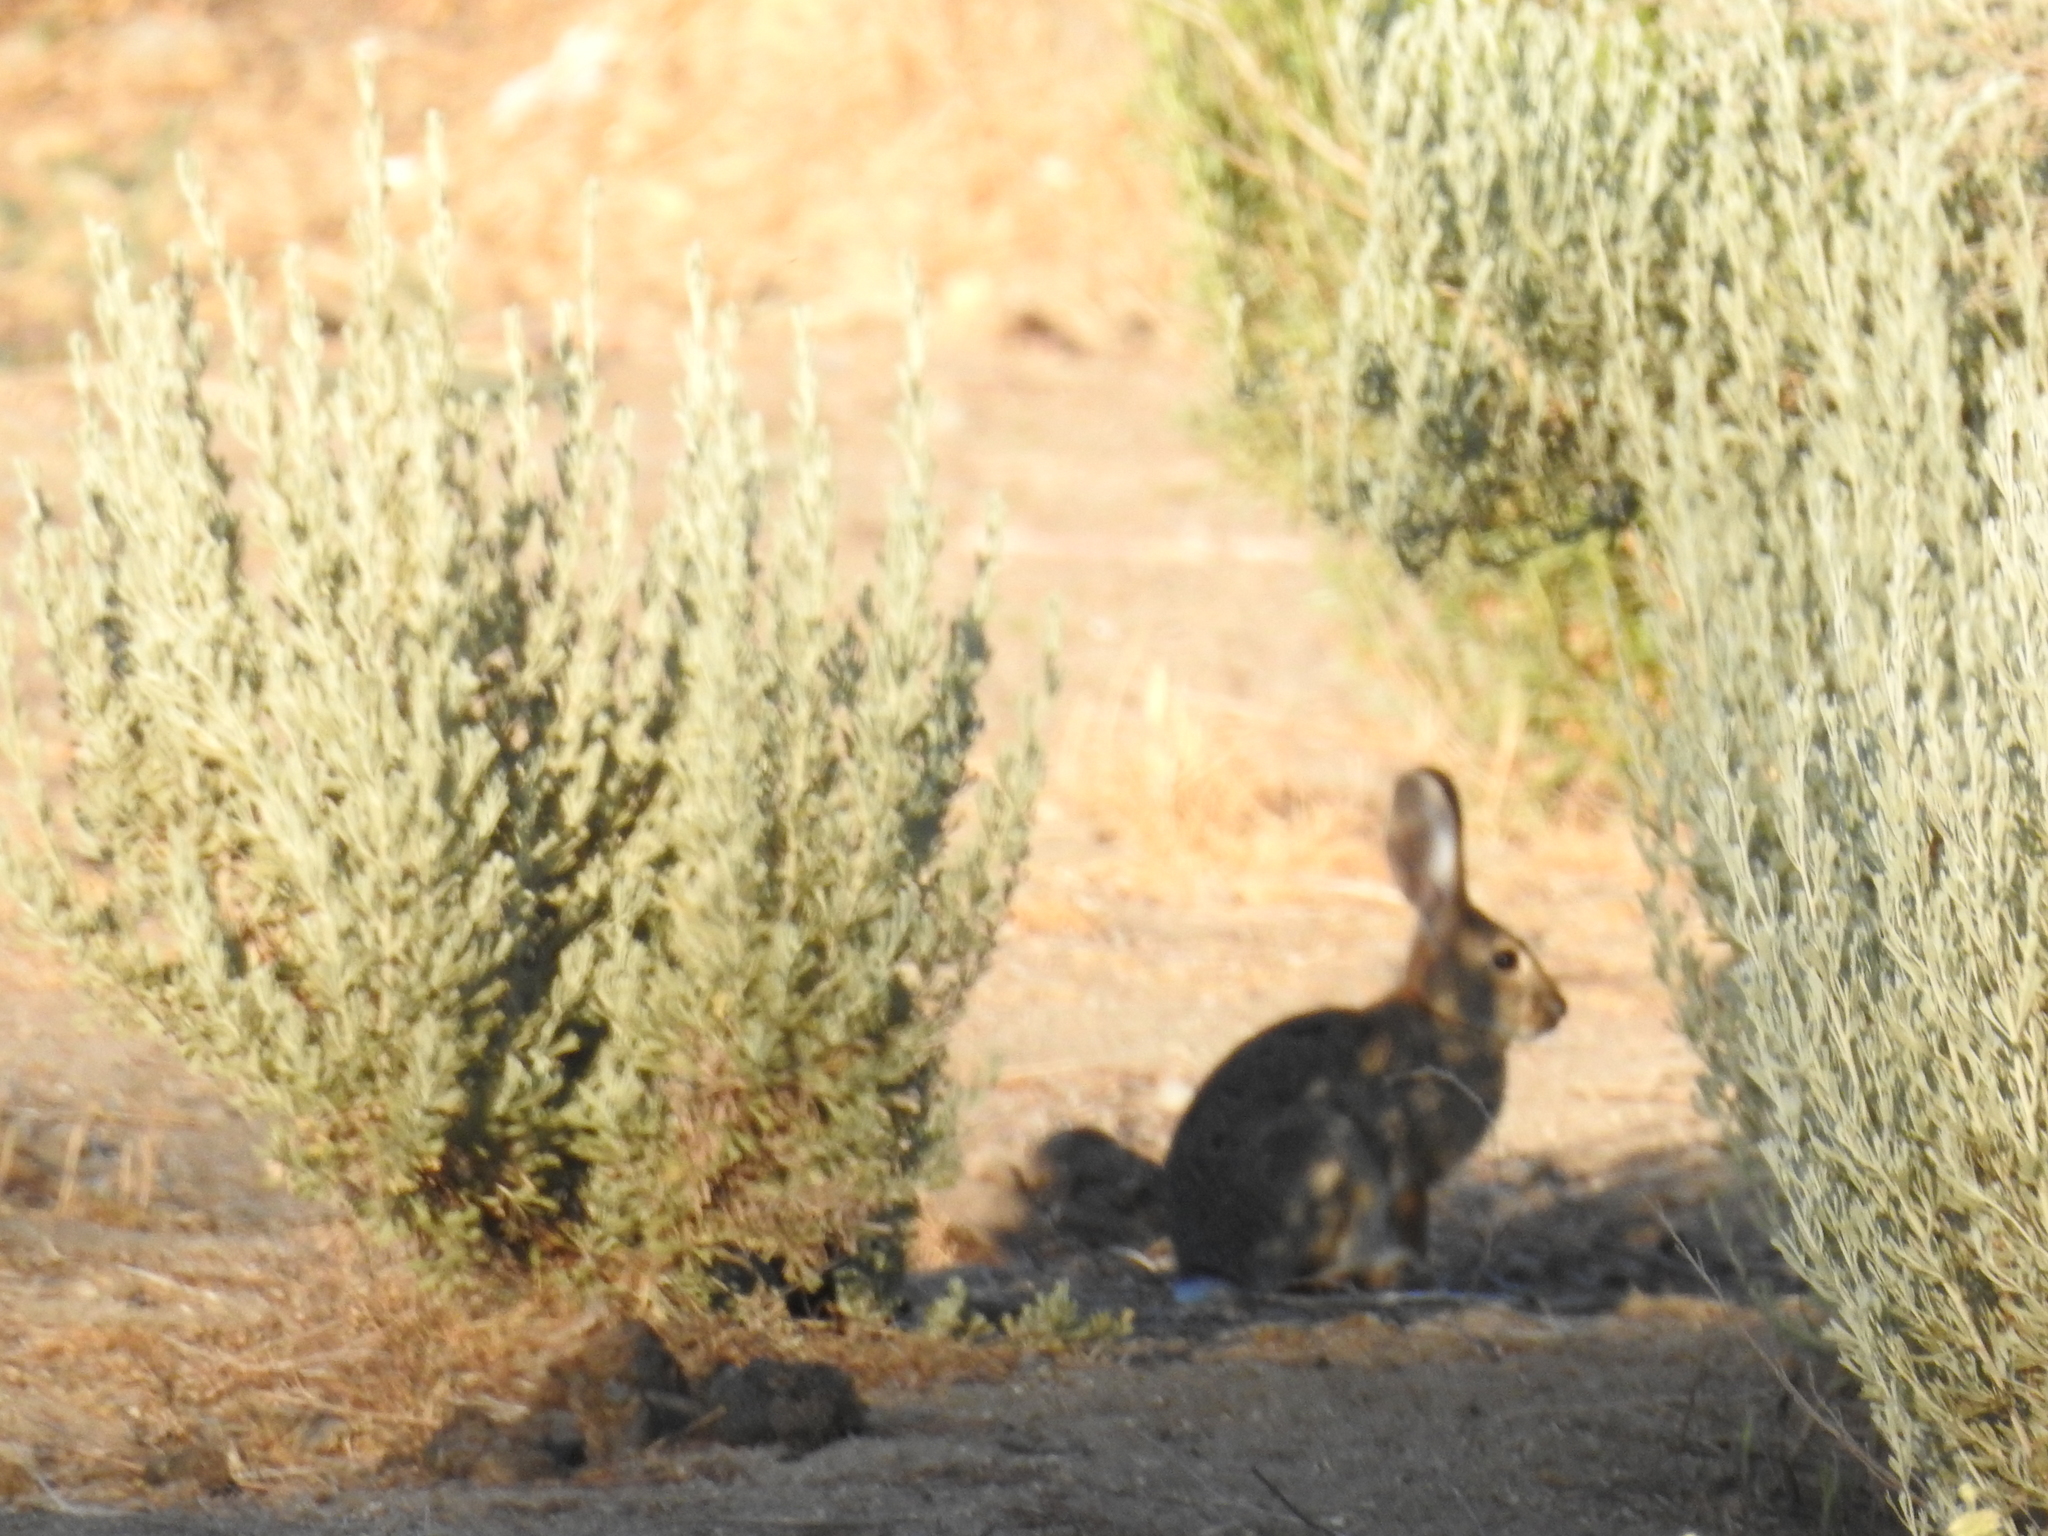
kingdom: Animalia
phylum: Chordata
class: Mammalia
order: Lagomorpha
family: Leporidae
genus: Sylvilagus
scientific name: Sylvilagus audubonii
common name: Desert cottontail
